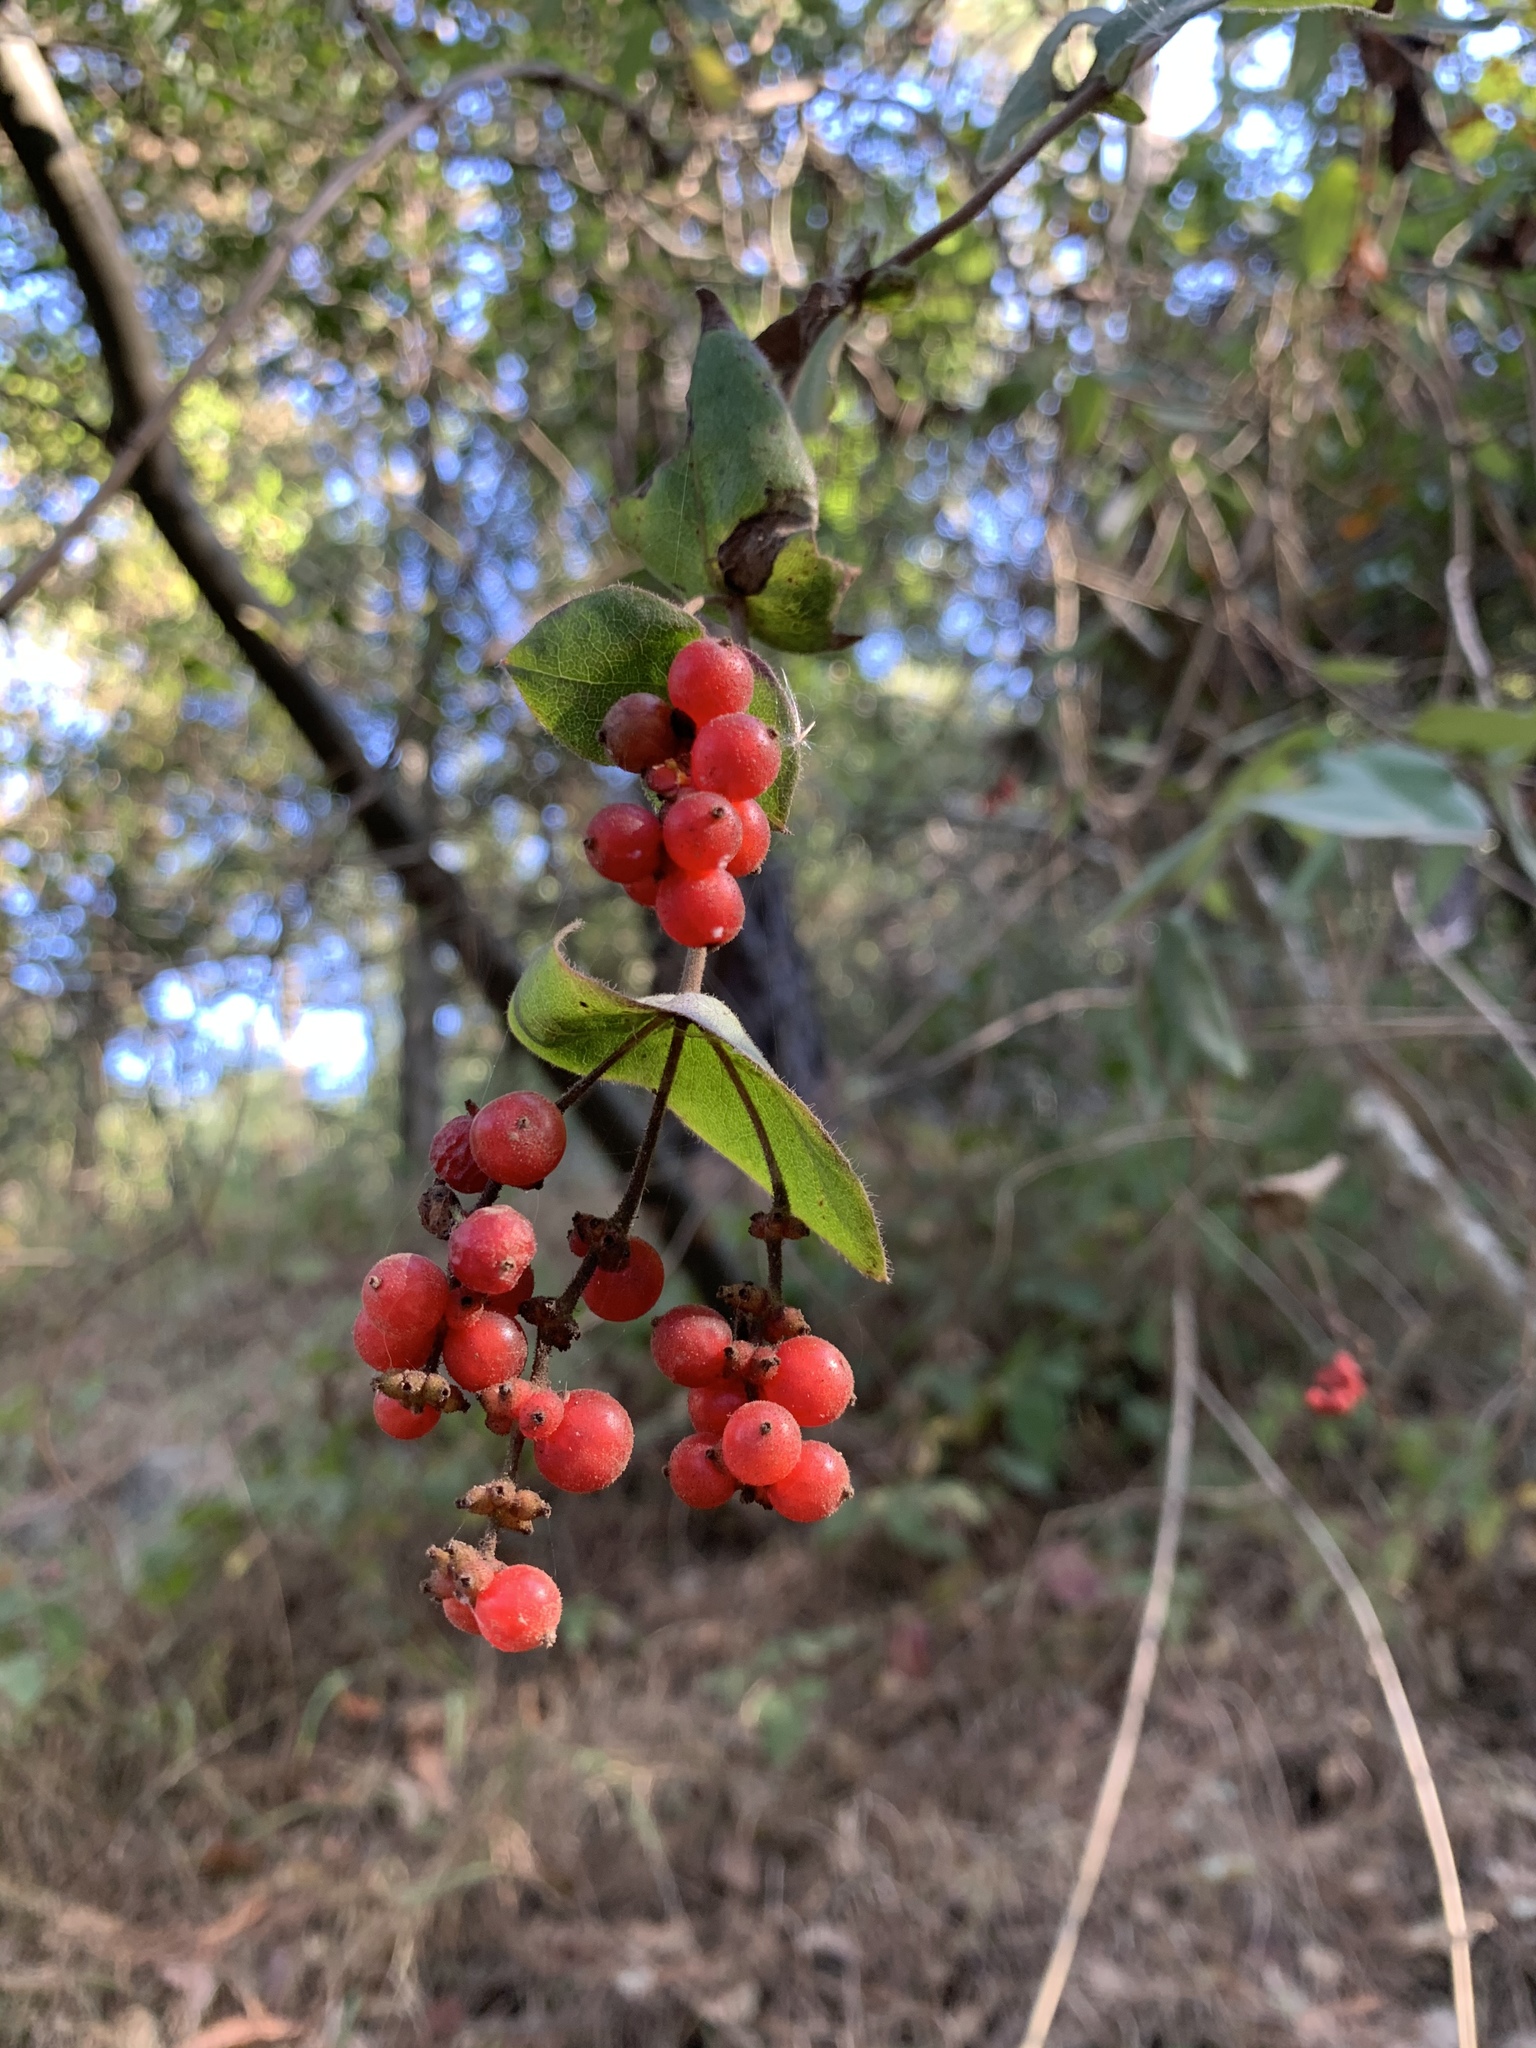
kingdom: Plantae
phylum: Tracheophyta
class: Magnoliopsida
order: Dipsacales
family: Caprifoliaceae
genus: Lonicera
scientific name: Lonicera hispidula
